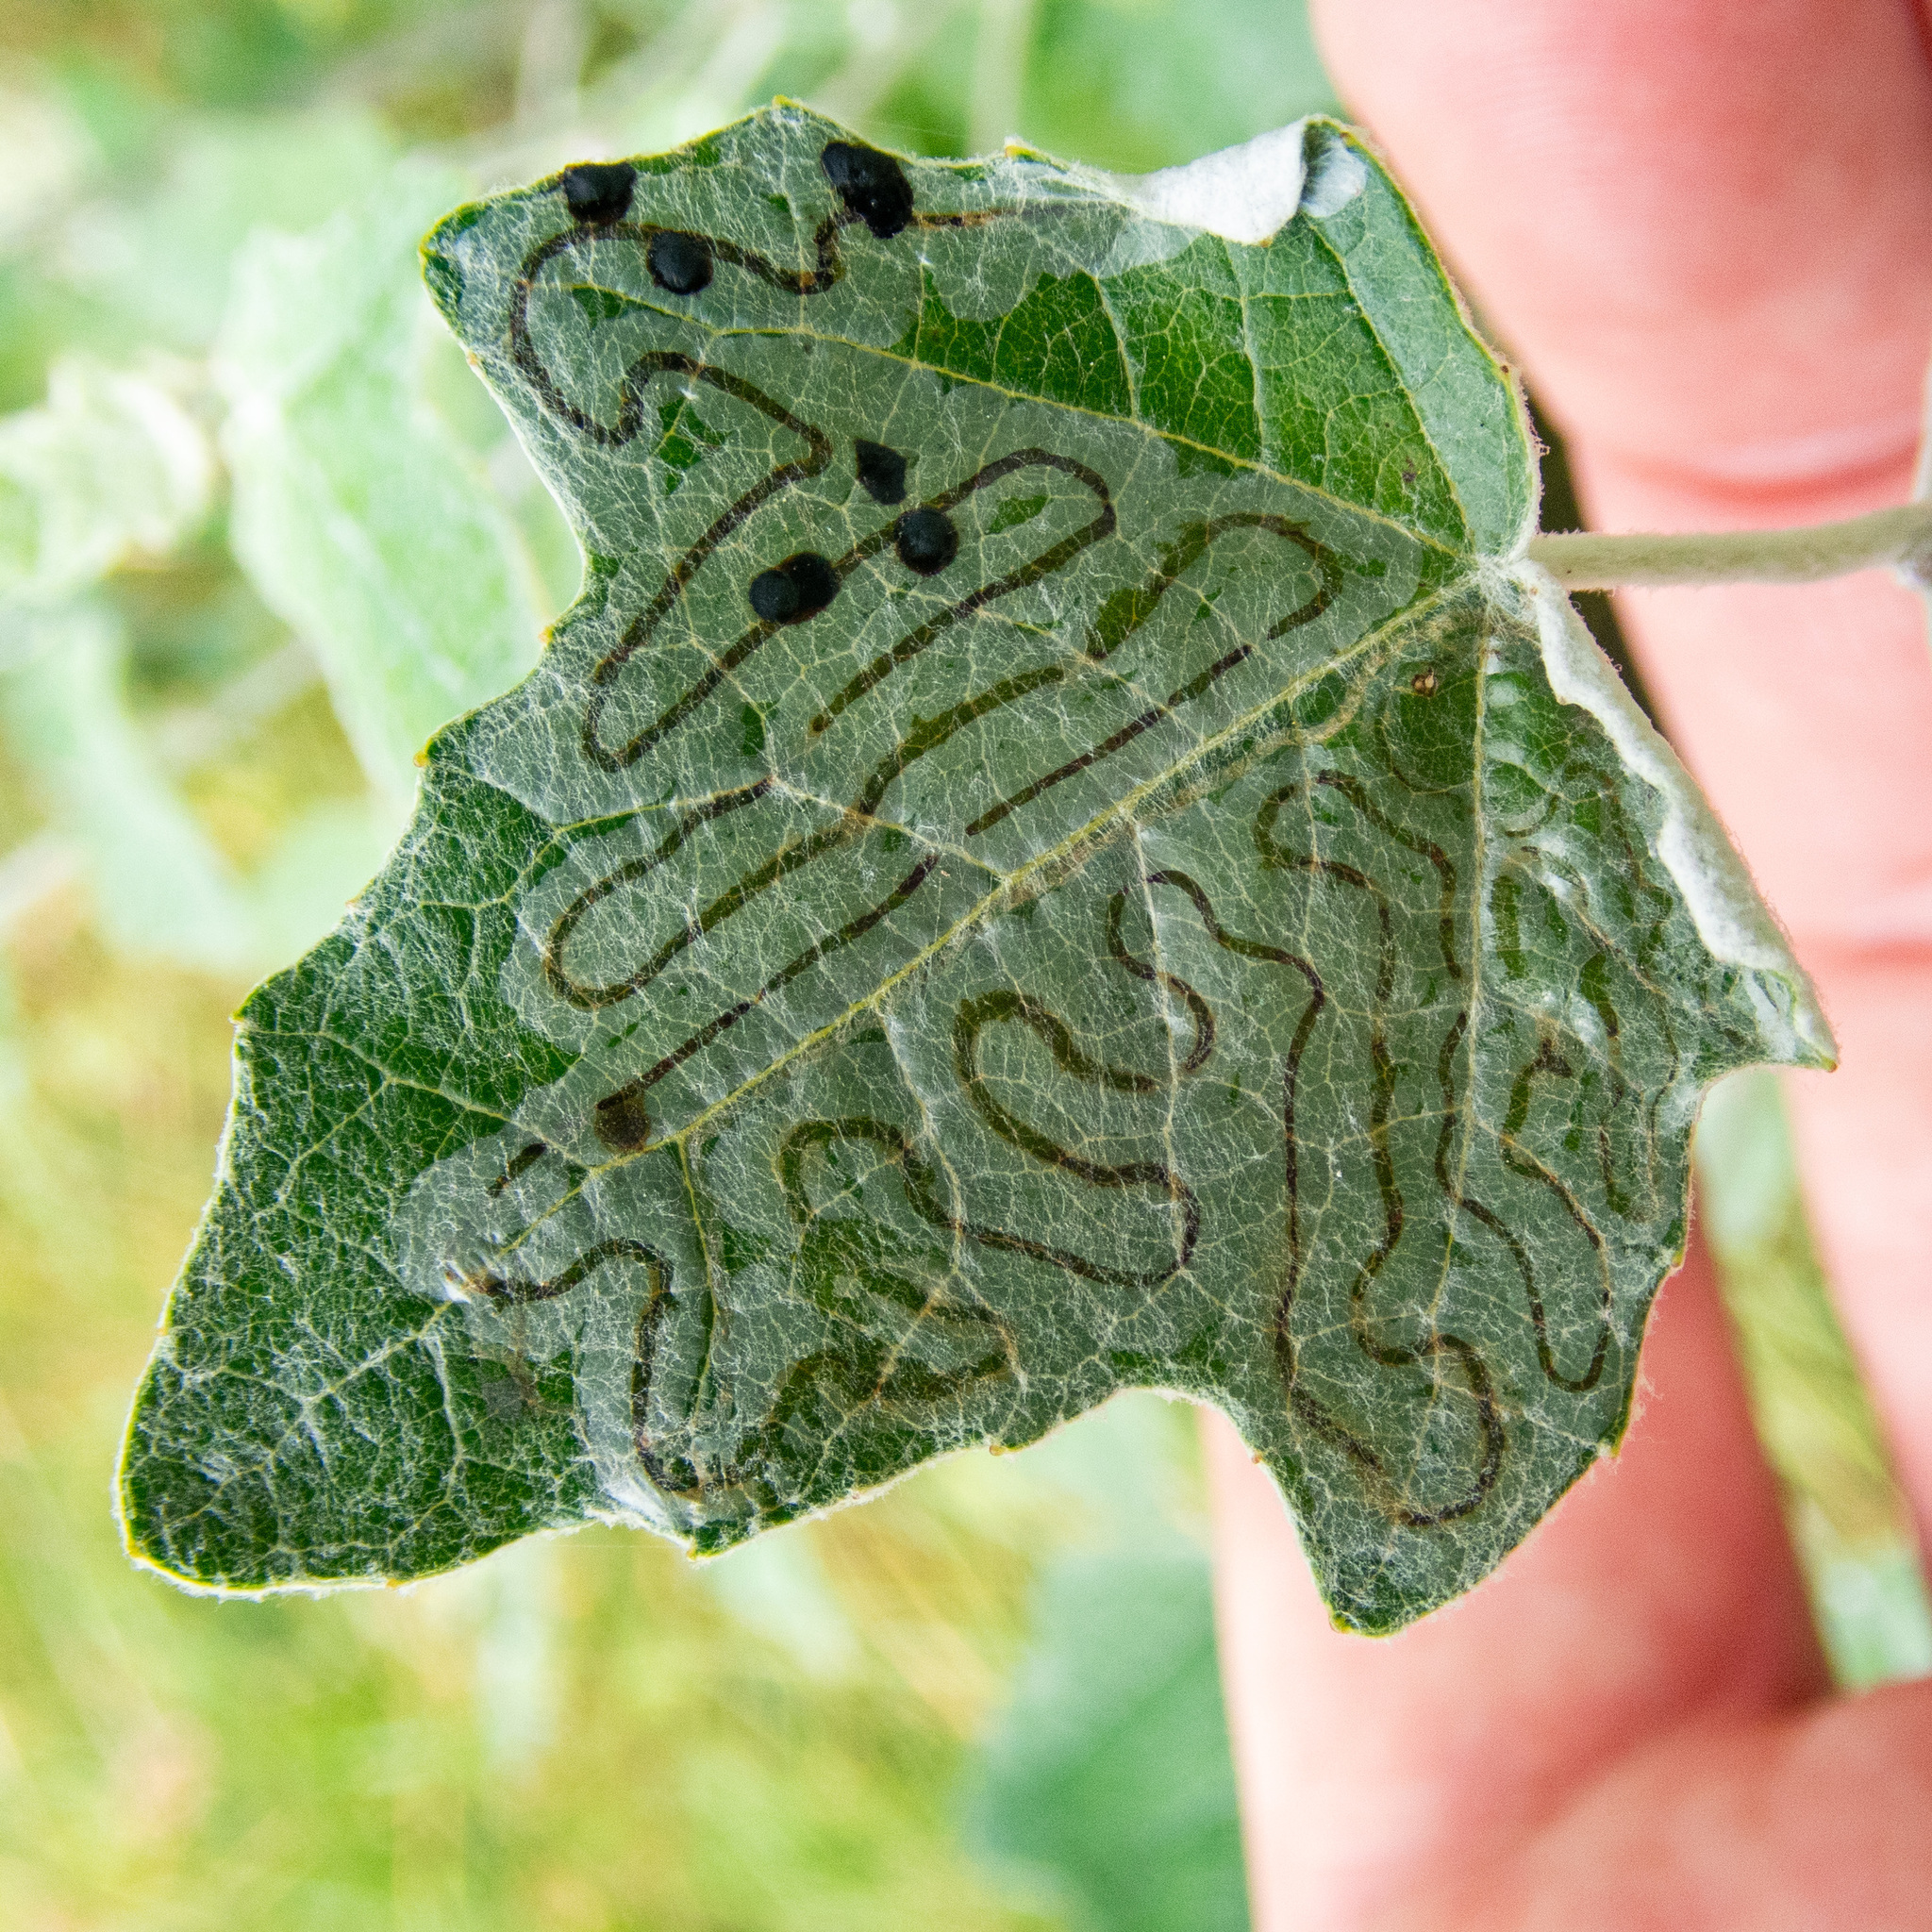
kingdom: Animalia
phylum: Arthropoda
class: Insecta
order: Lepidoptera
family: Gracillariidae
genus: Phyllocnistis
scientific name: Phyllocnistis populiella
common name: Aspen serpentine leafminer moth
